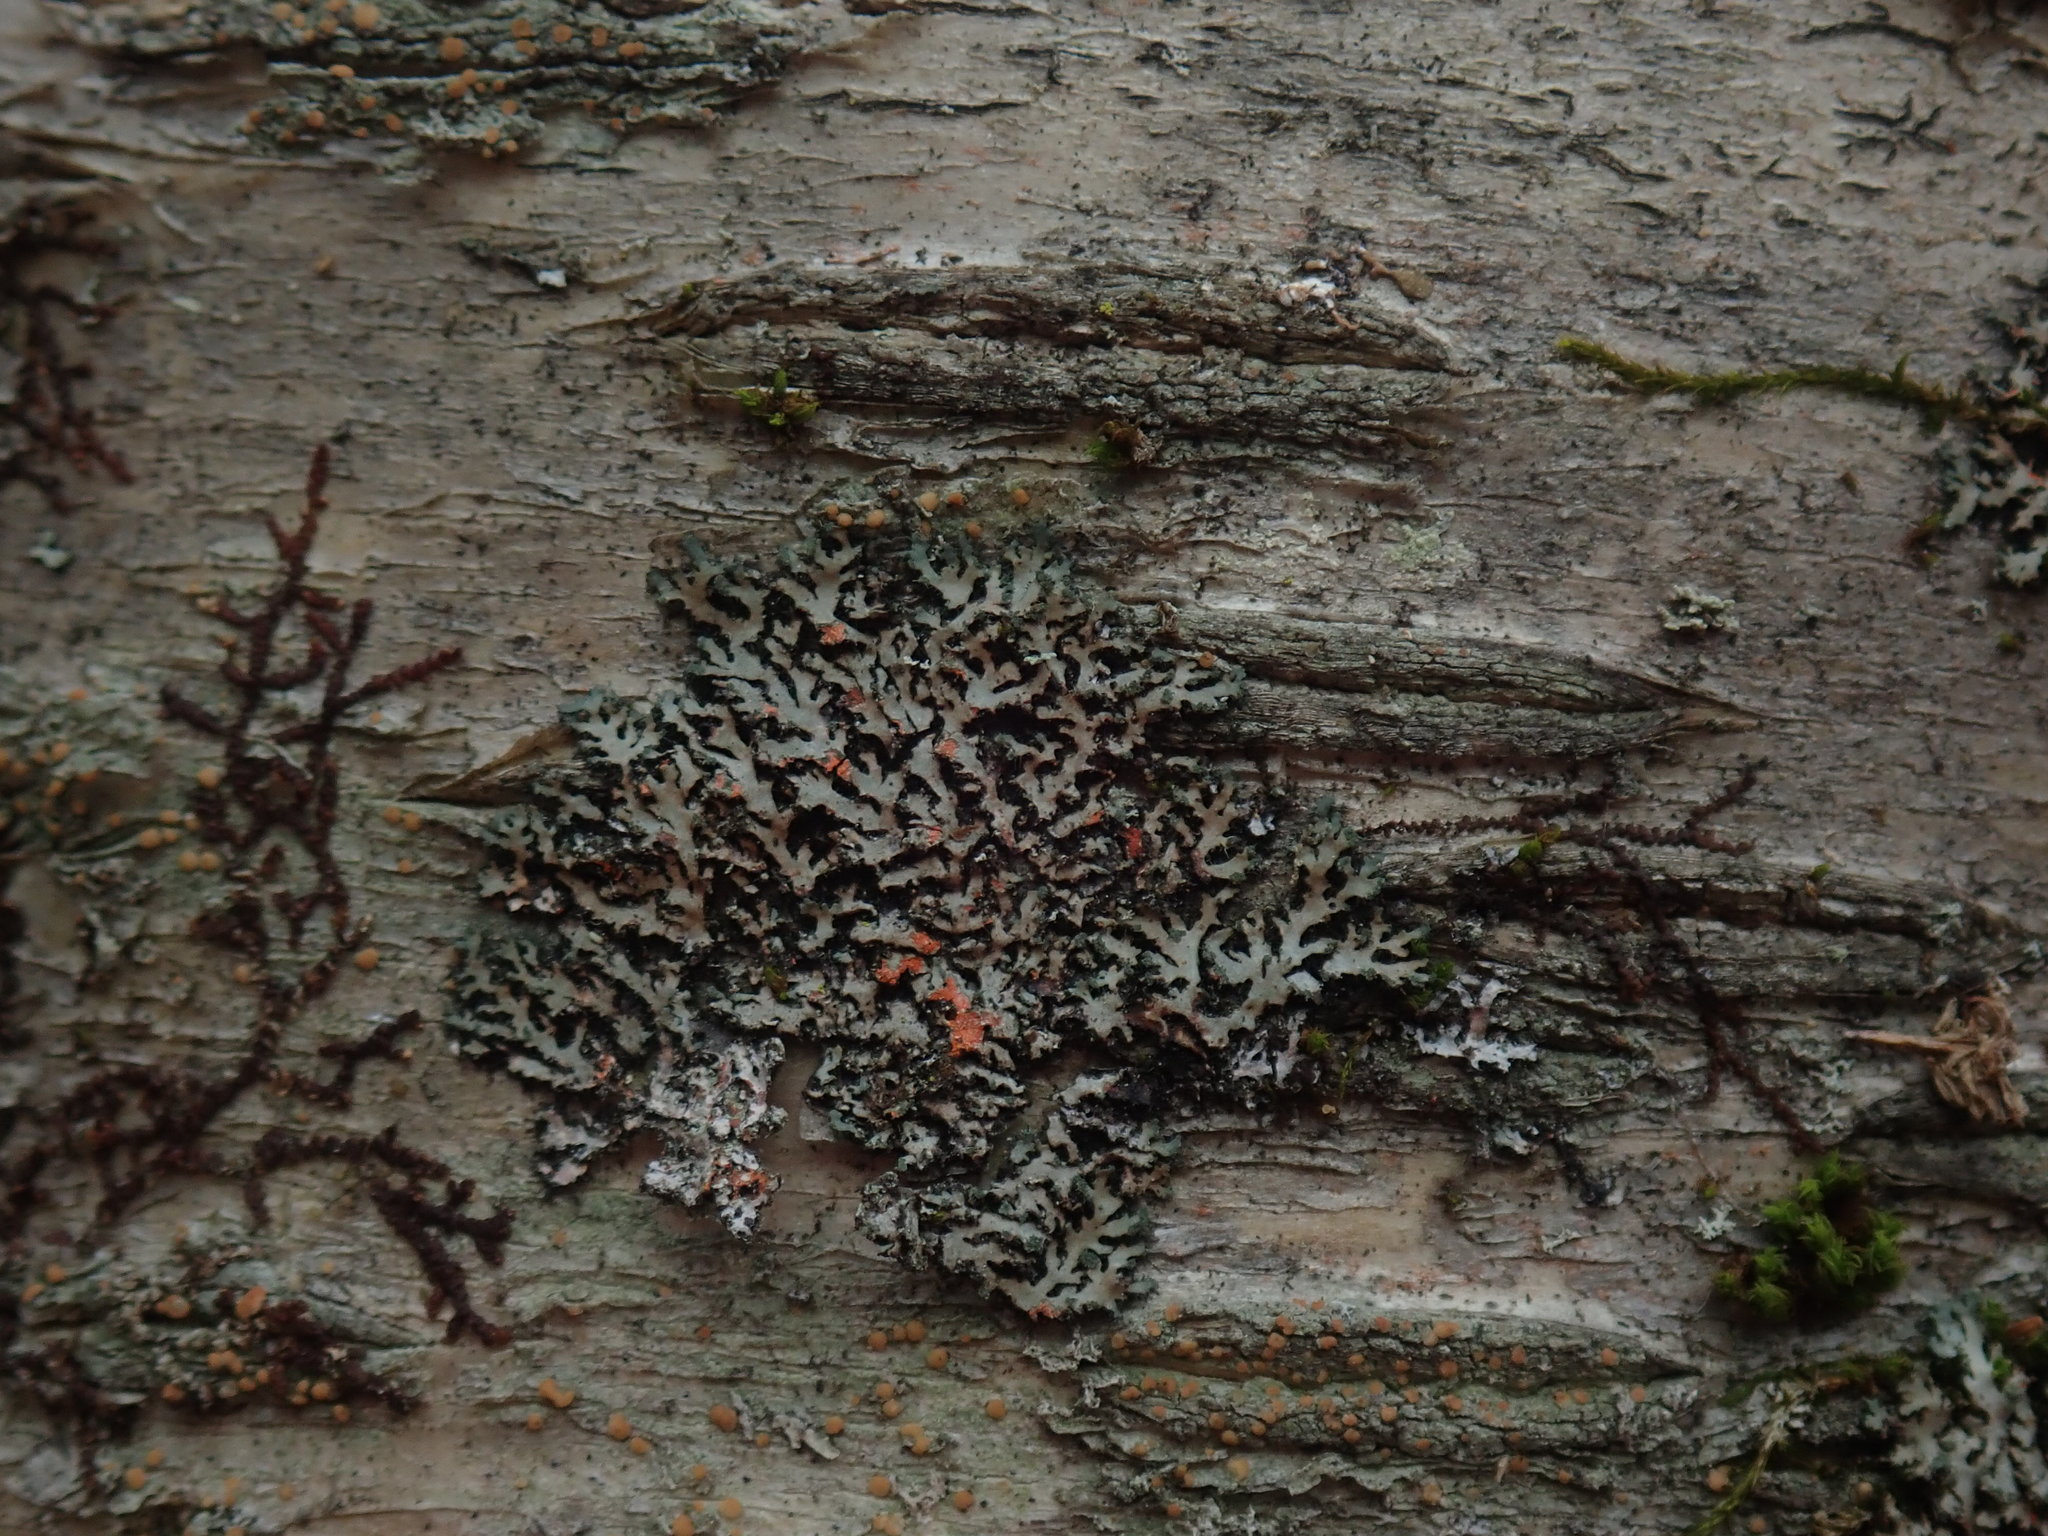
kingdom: Fungi
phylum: Ascomycota
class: Lecanoromycetes
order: Caliciales
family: Physciaceae
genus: Phaeophyscia
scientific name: Phaeophyscia rubropulchra
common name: Orange-cored shadow lichen
